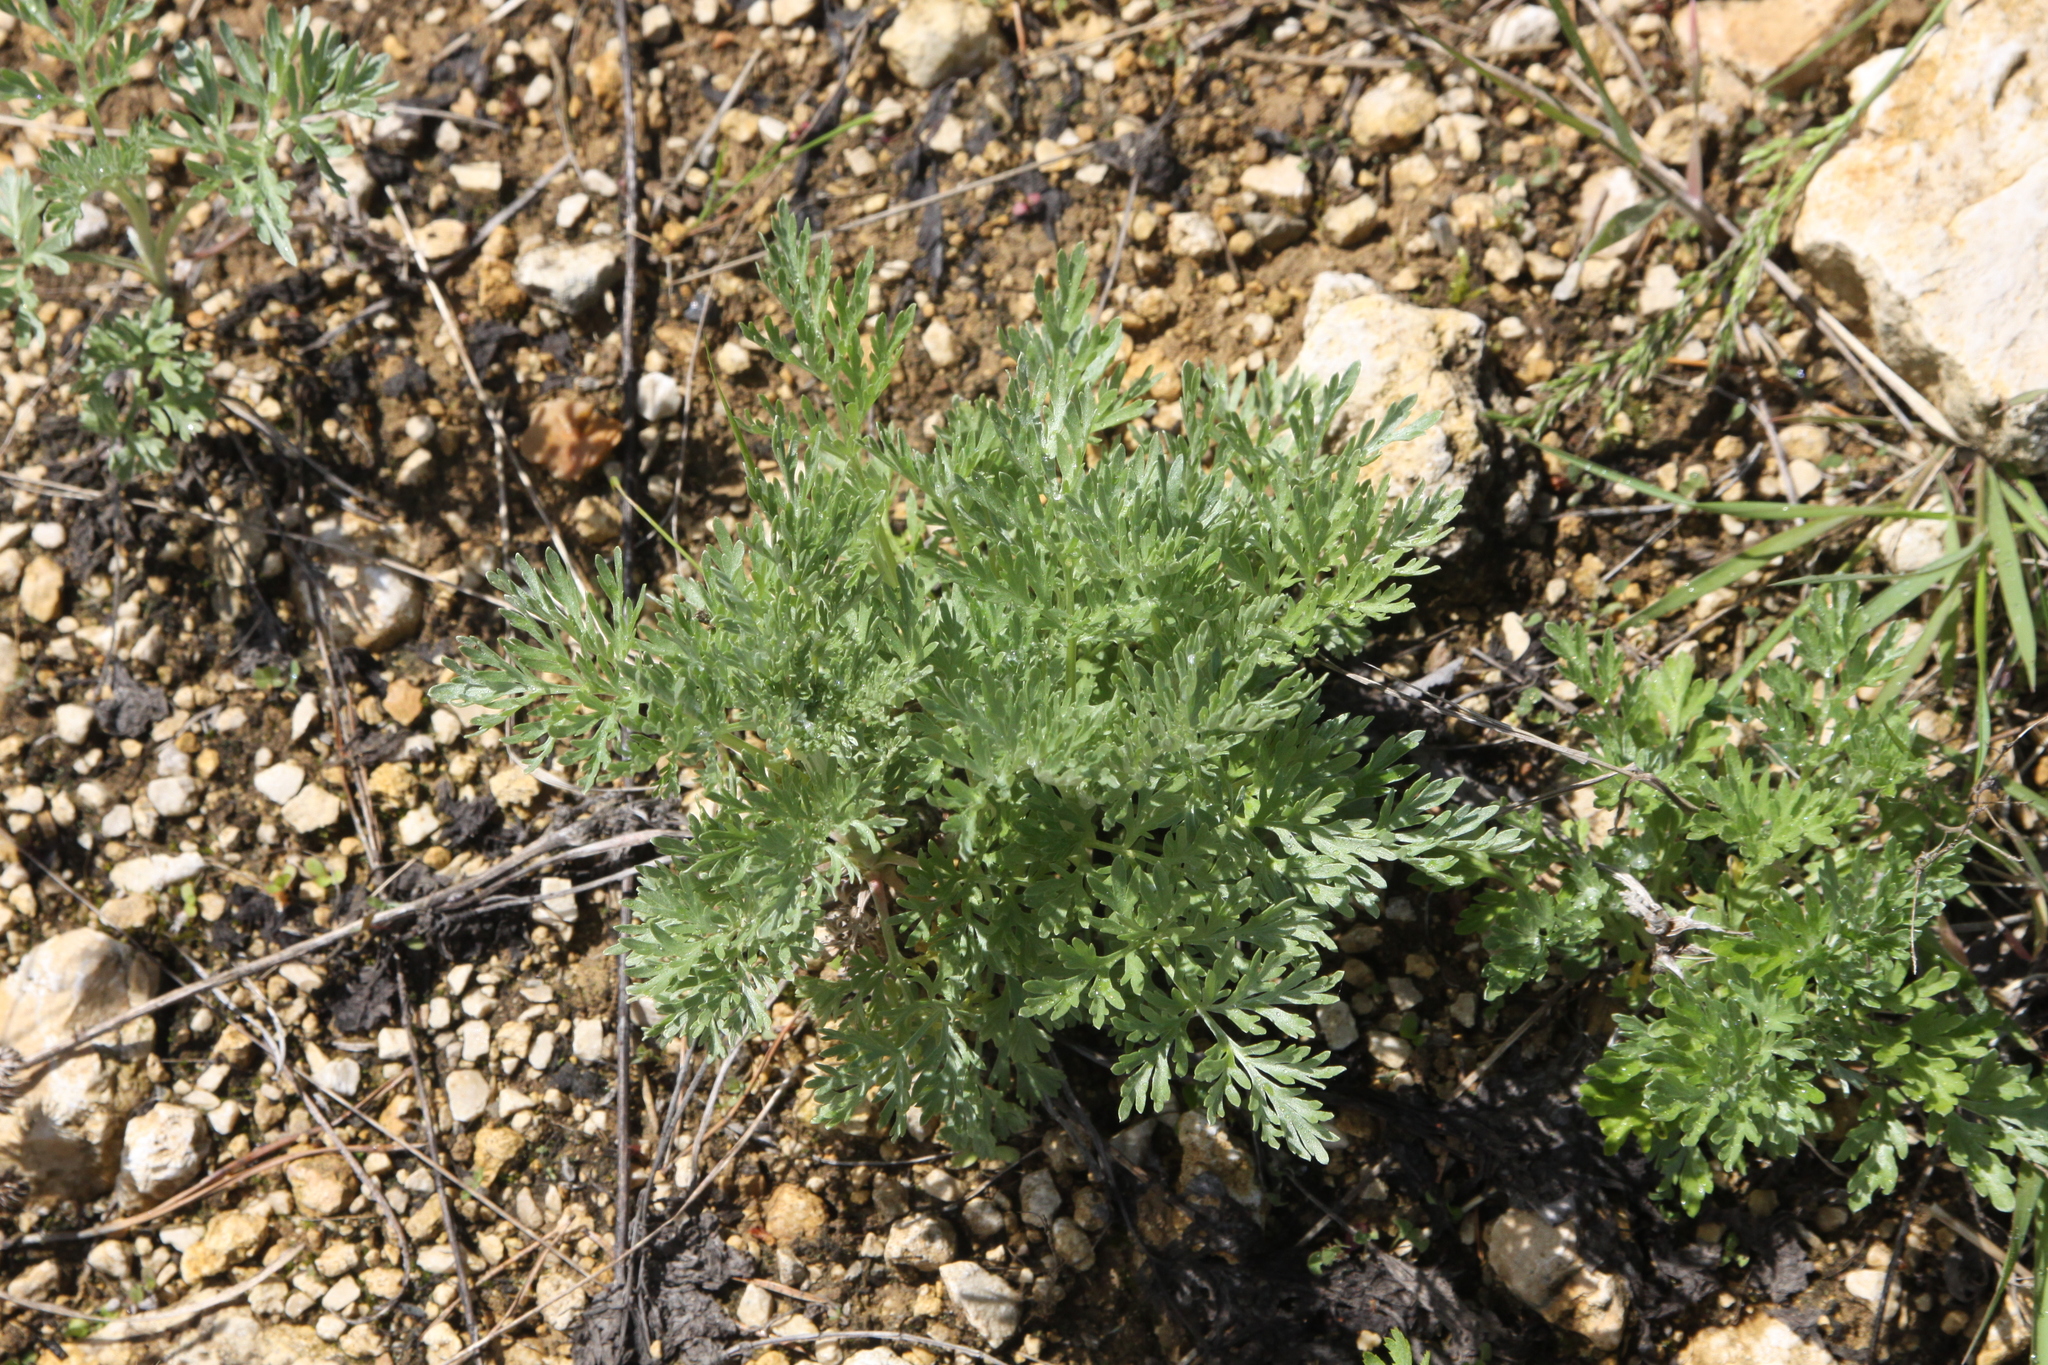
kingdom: Plantae
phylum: Tracheophyta
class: Magnoliopsida
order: Asterales
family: Asteraceae
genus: Artemisia
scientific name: Artemisia absinthium
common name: Wormwood
